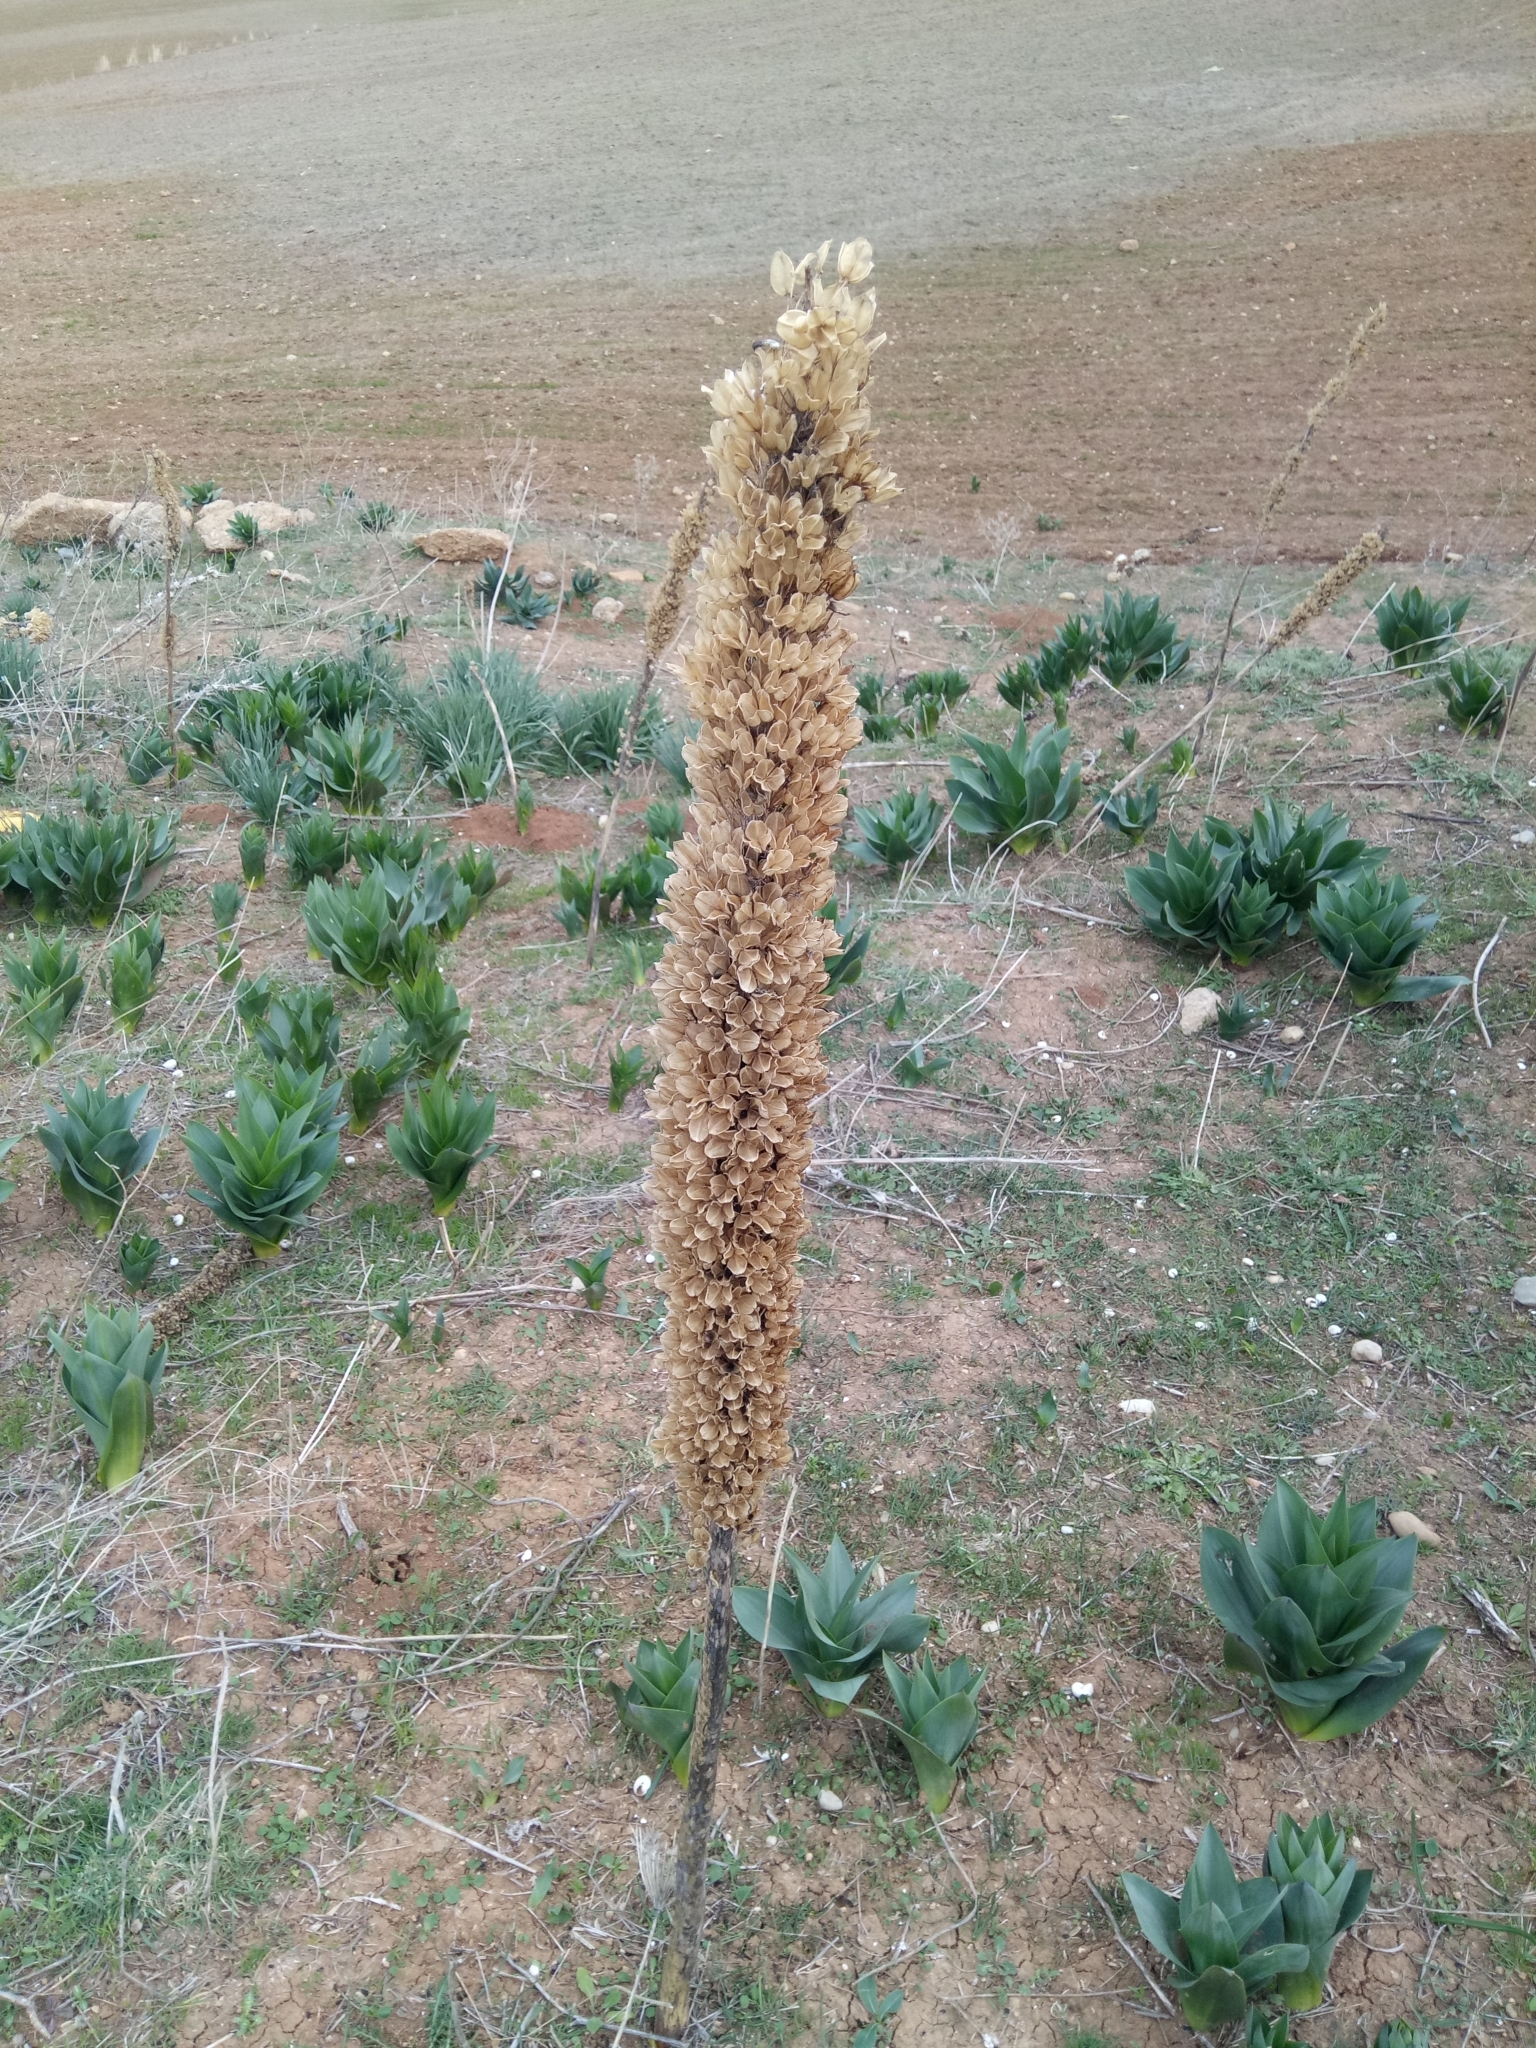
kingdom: Plantae
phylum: Tracheophyta
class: Liliopsida
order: Asparagales
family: Asparagaceae
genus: Drimia
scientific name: Drimia numidica
